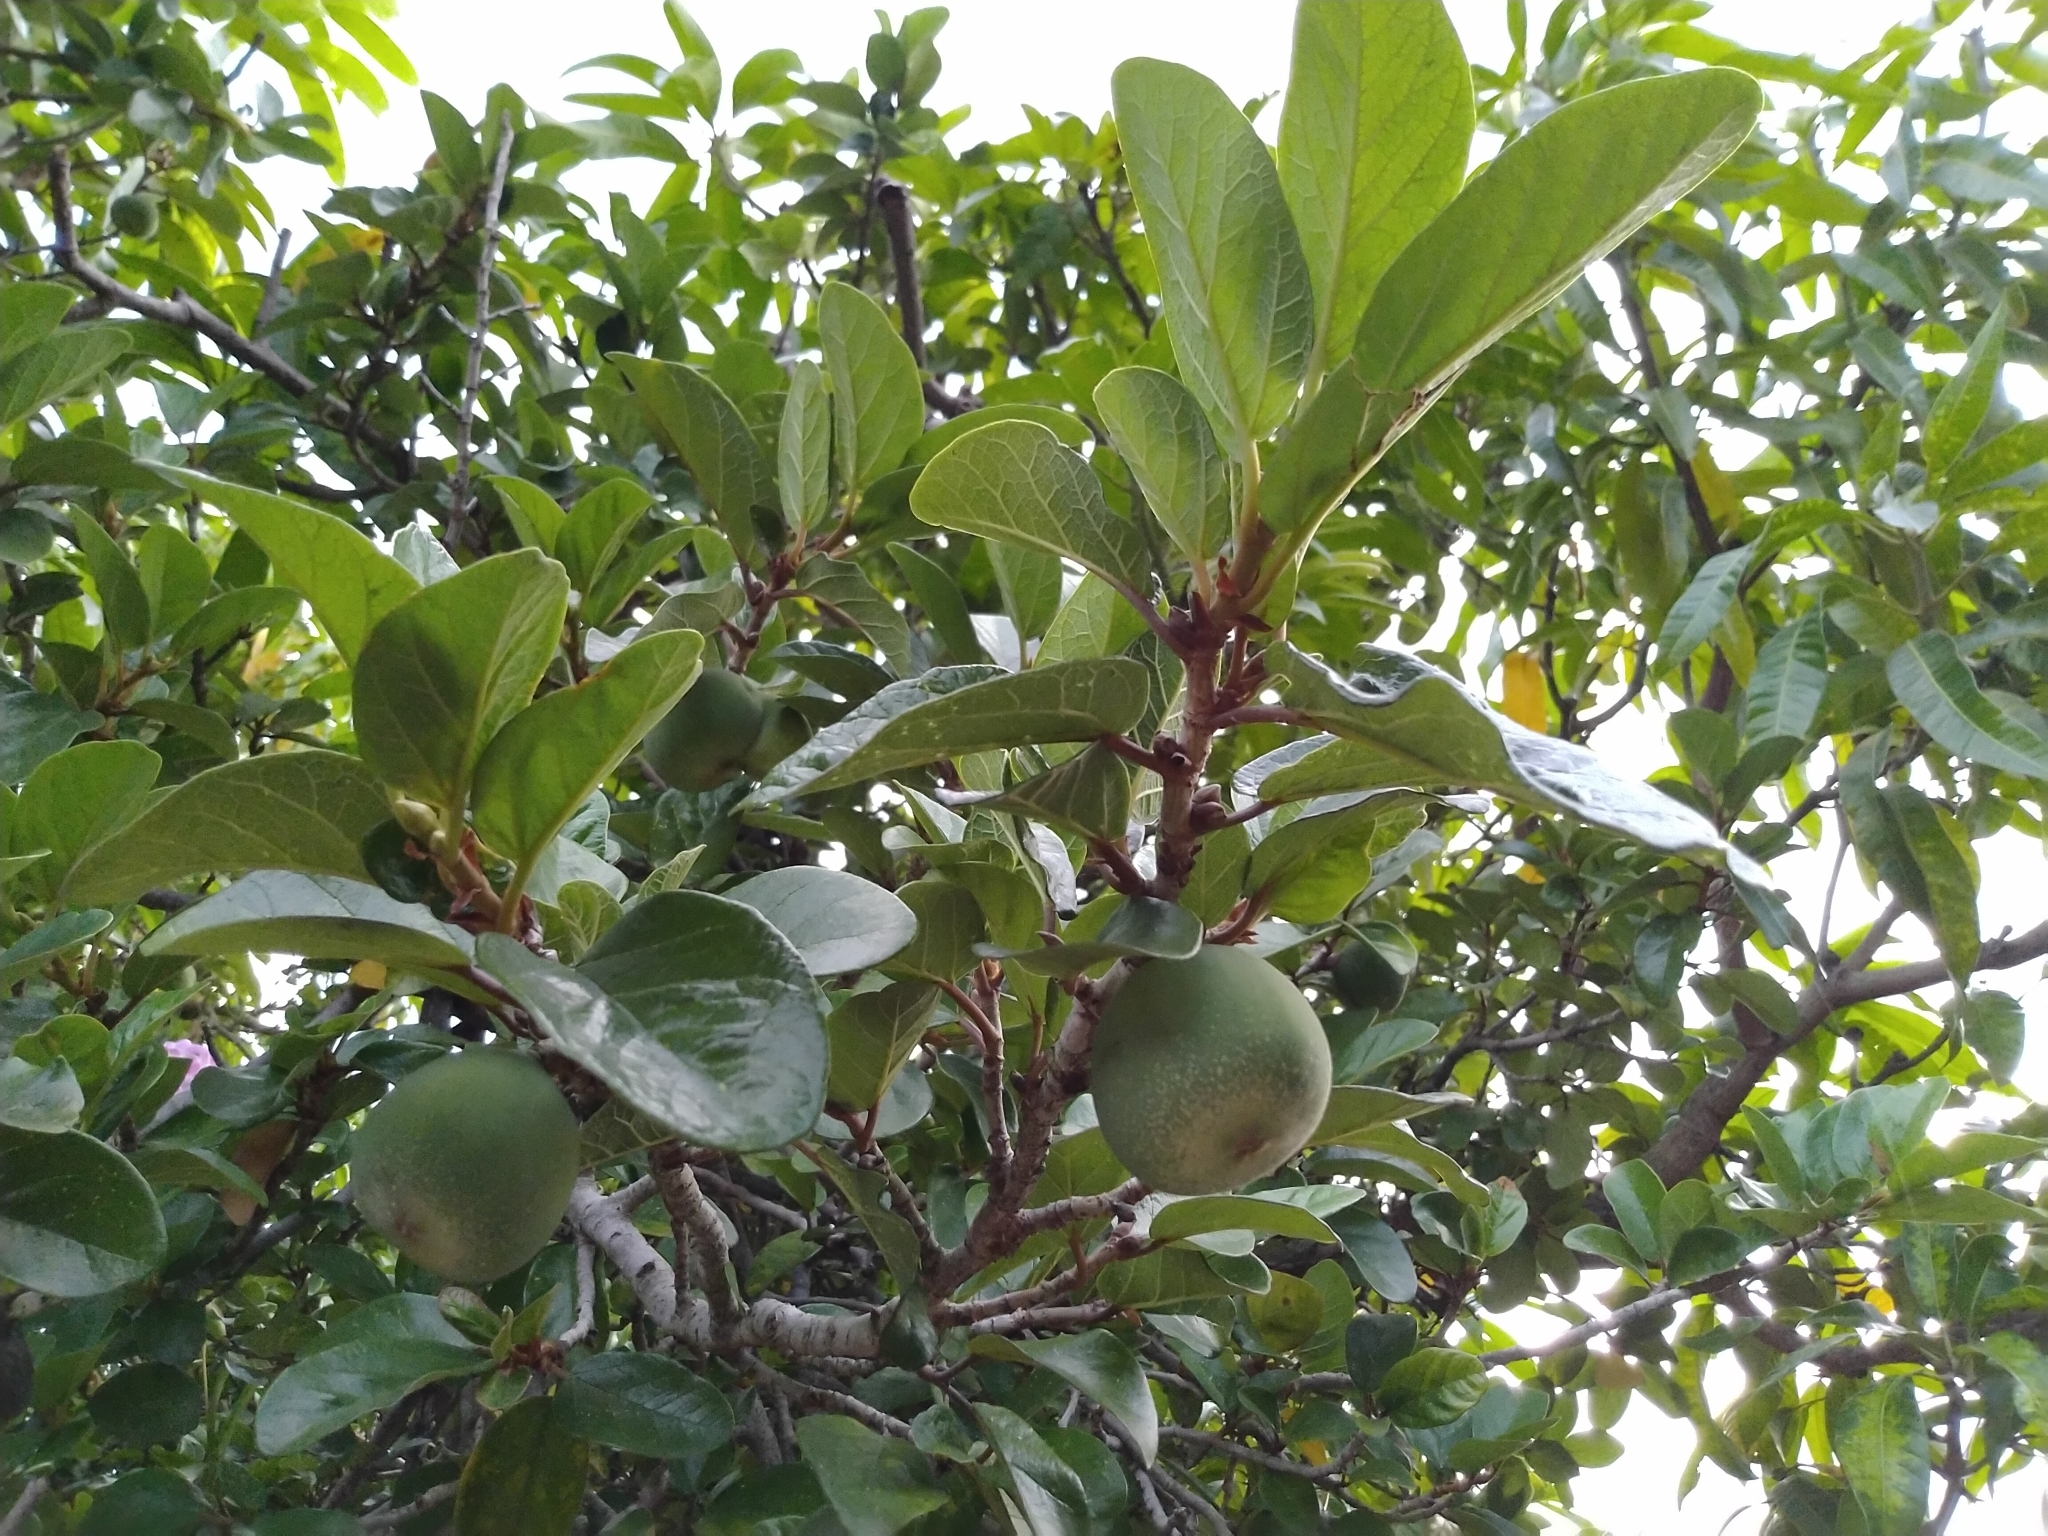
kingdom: Plantae
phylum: Tracheophyta
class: Magnoliopsida
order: Rosales
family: Moraceae
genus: Ficus
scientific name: Ficus pumila
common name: Climbingfig
